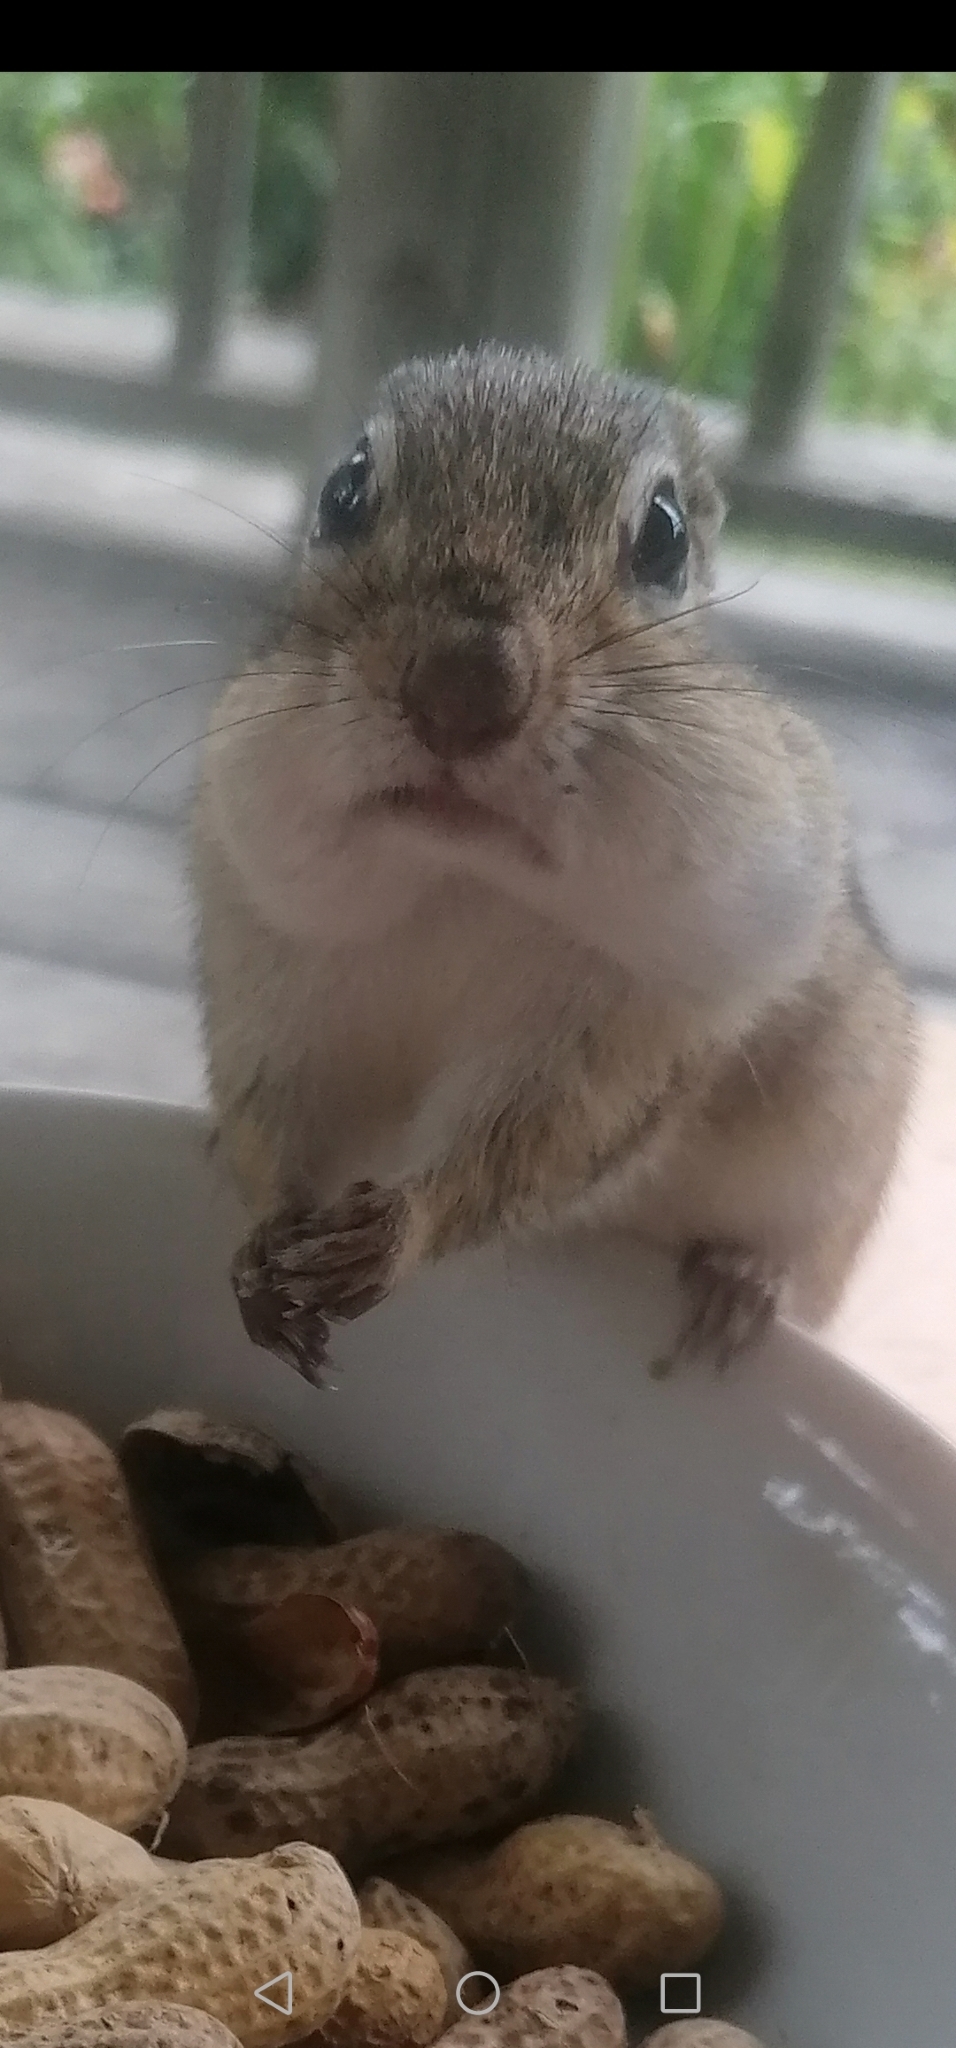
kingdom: Animalia
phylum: Chordata
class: Mammalia
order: Rodentia
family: Sciuridae
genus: Tamias
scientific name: Tamias striatus
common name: Eastern chipmunk
